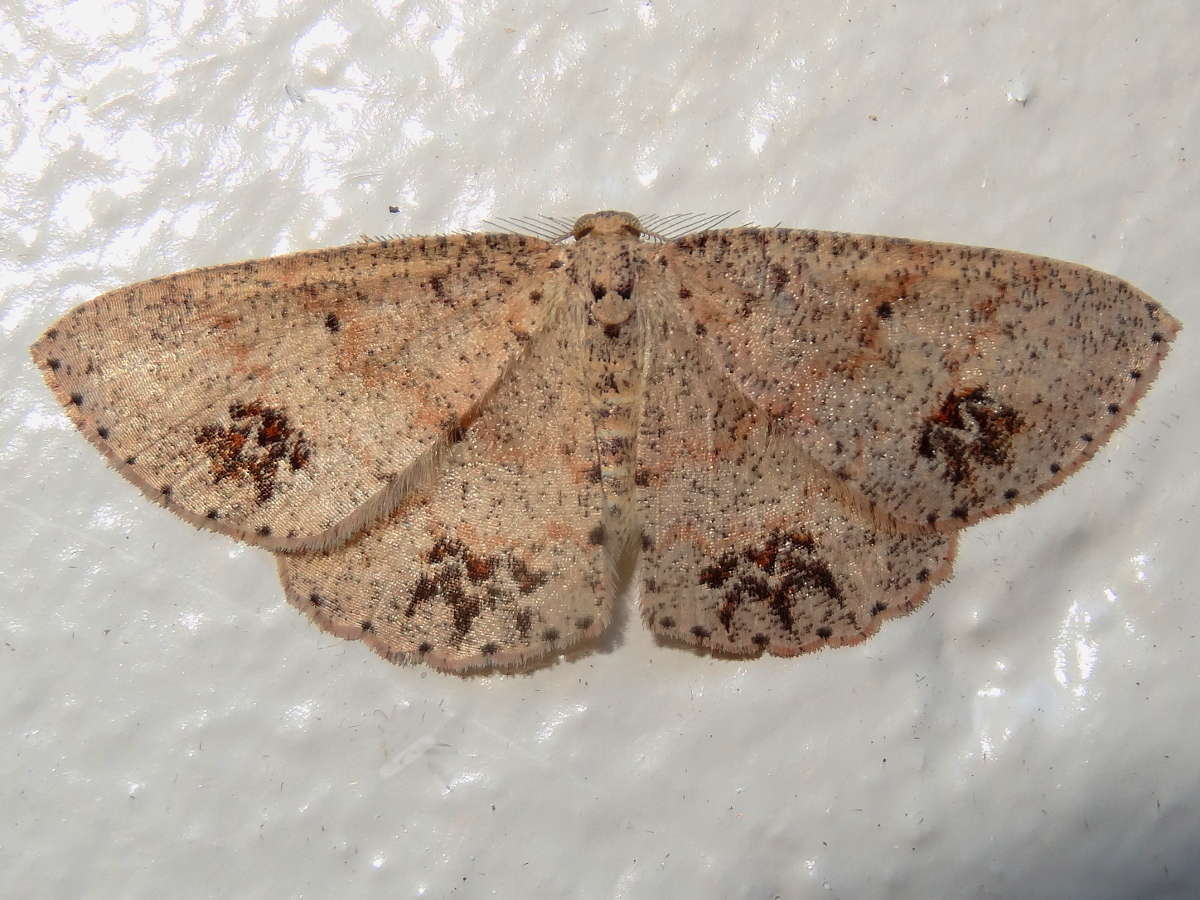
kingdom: Animalia
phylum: Arthropoda
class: Insecta
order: Lepidoptera
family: Geometridae
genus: Casbia
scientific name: Casbia celidosema
